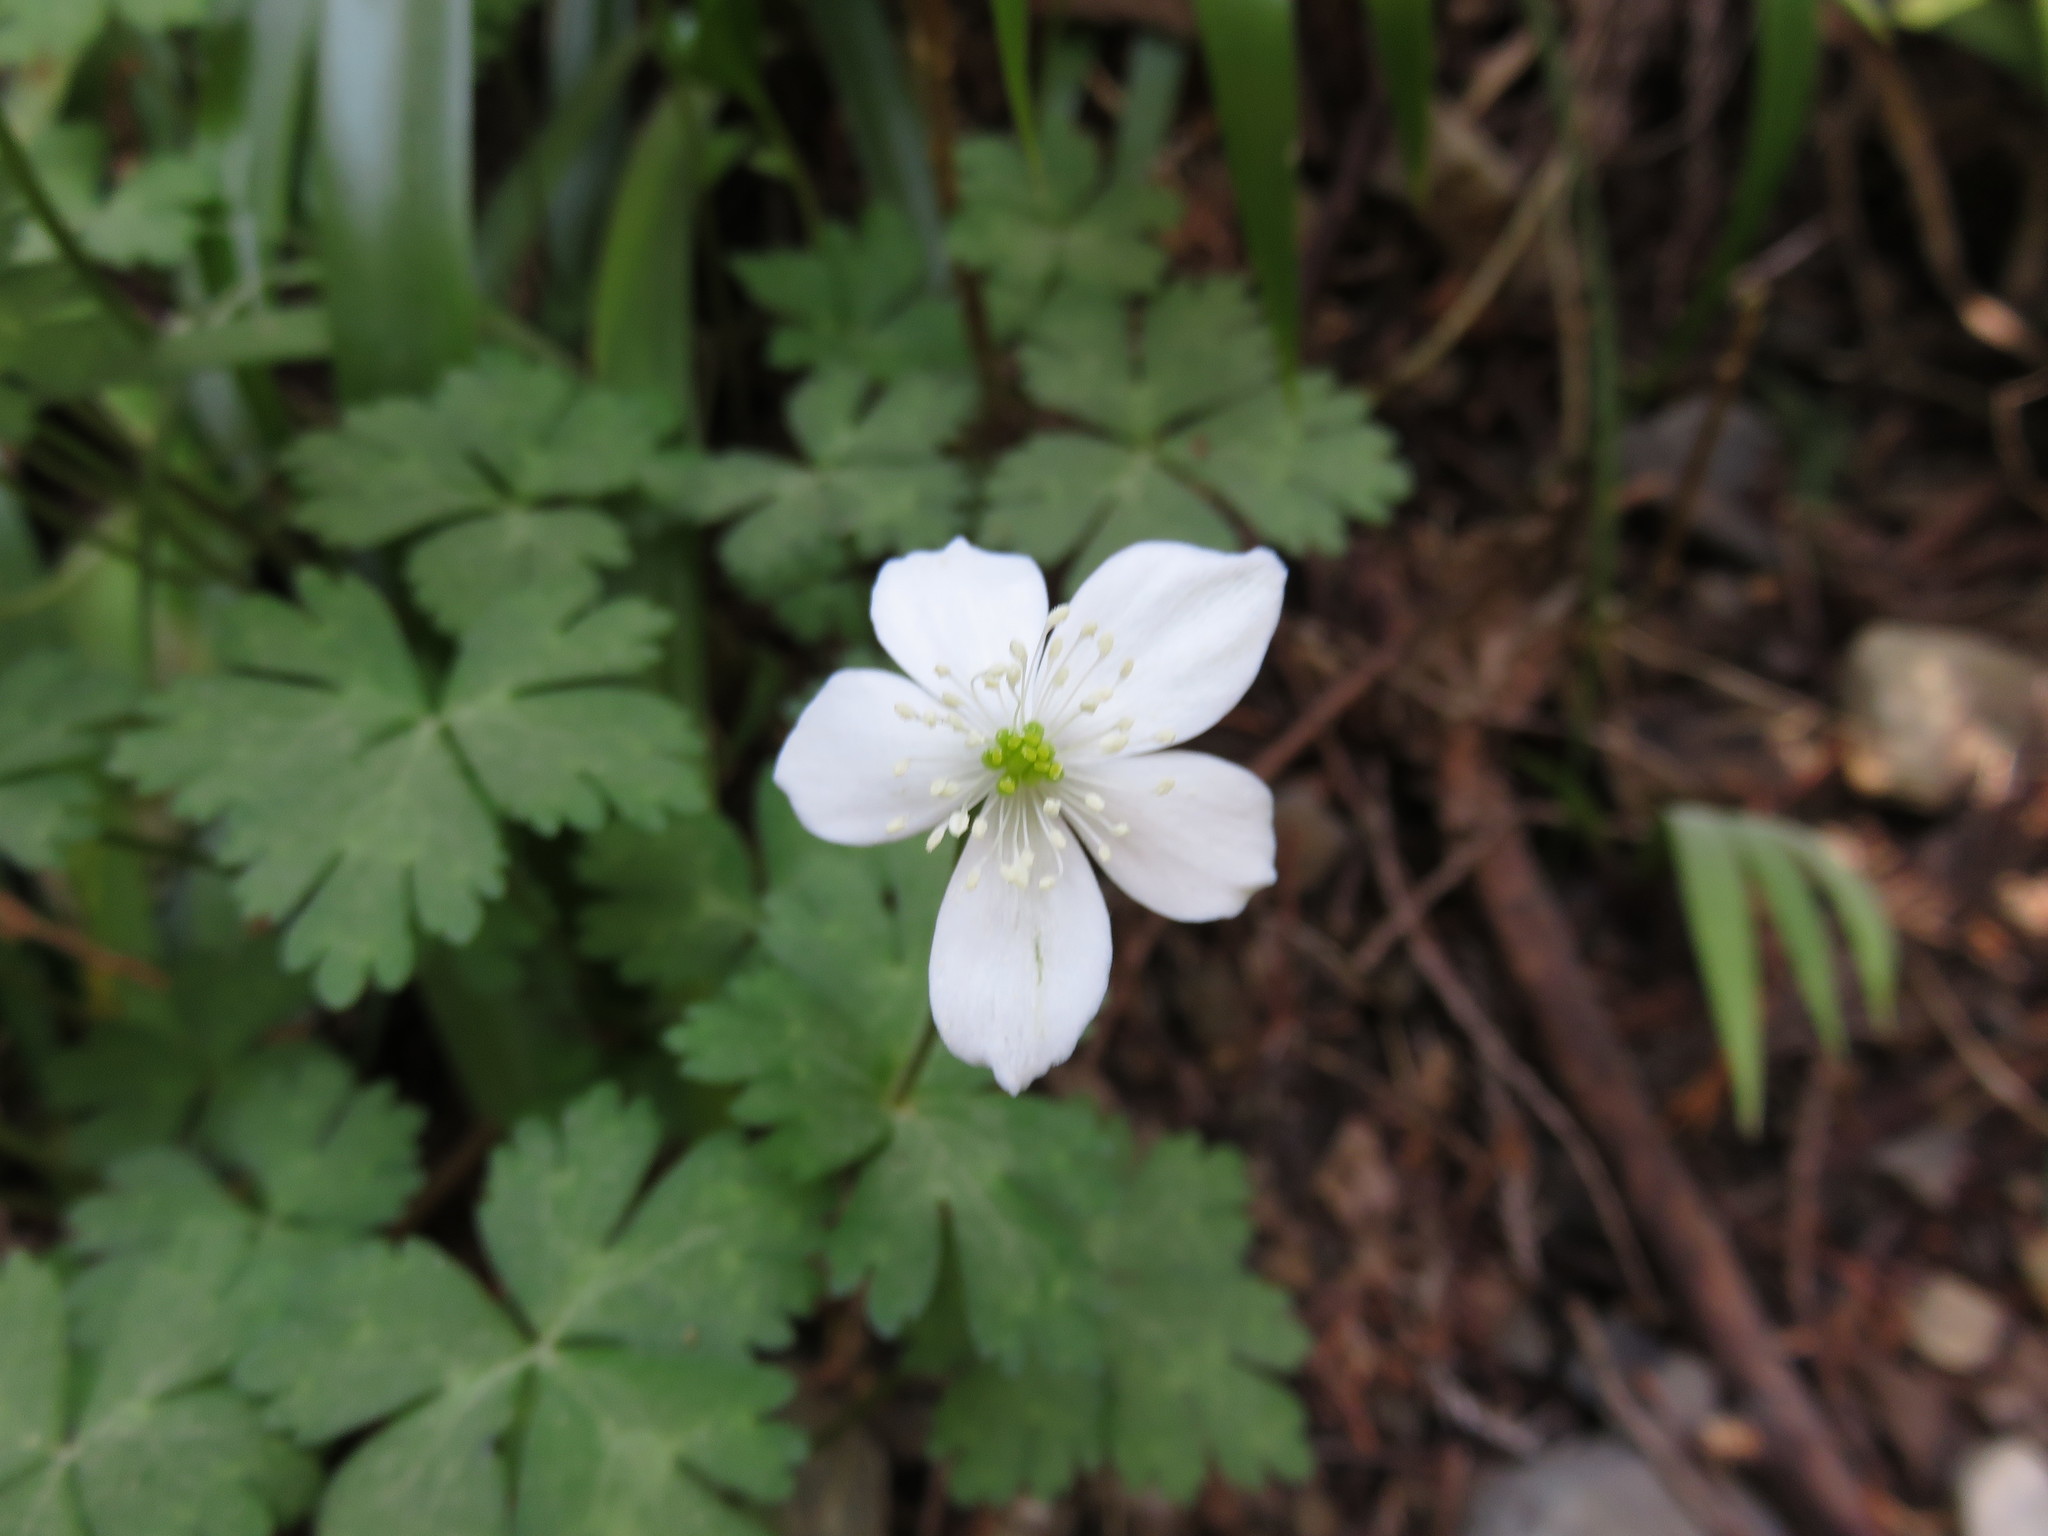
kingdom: Plantae
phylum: Tracheophyta
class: Magnoliopsida
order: Ranunculales
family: Ranunculaceae
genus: Anemonastrum
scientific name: Anemonastrum flaccidum
